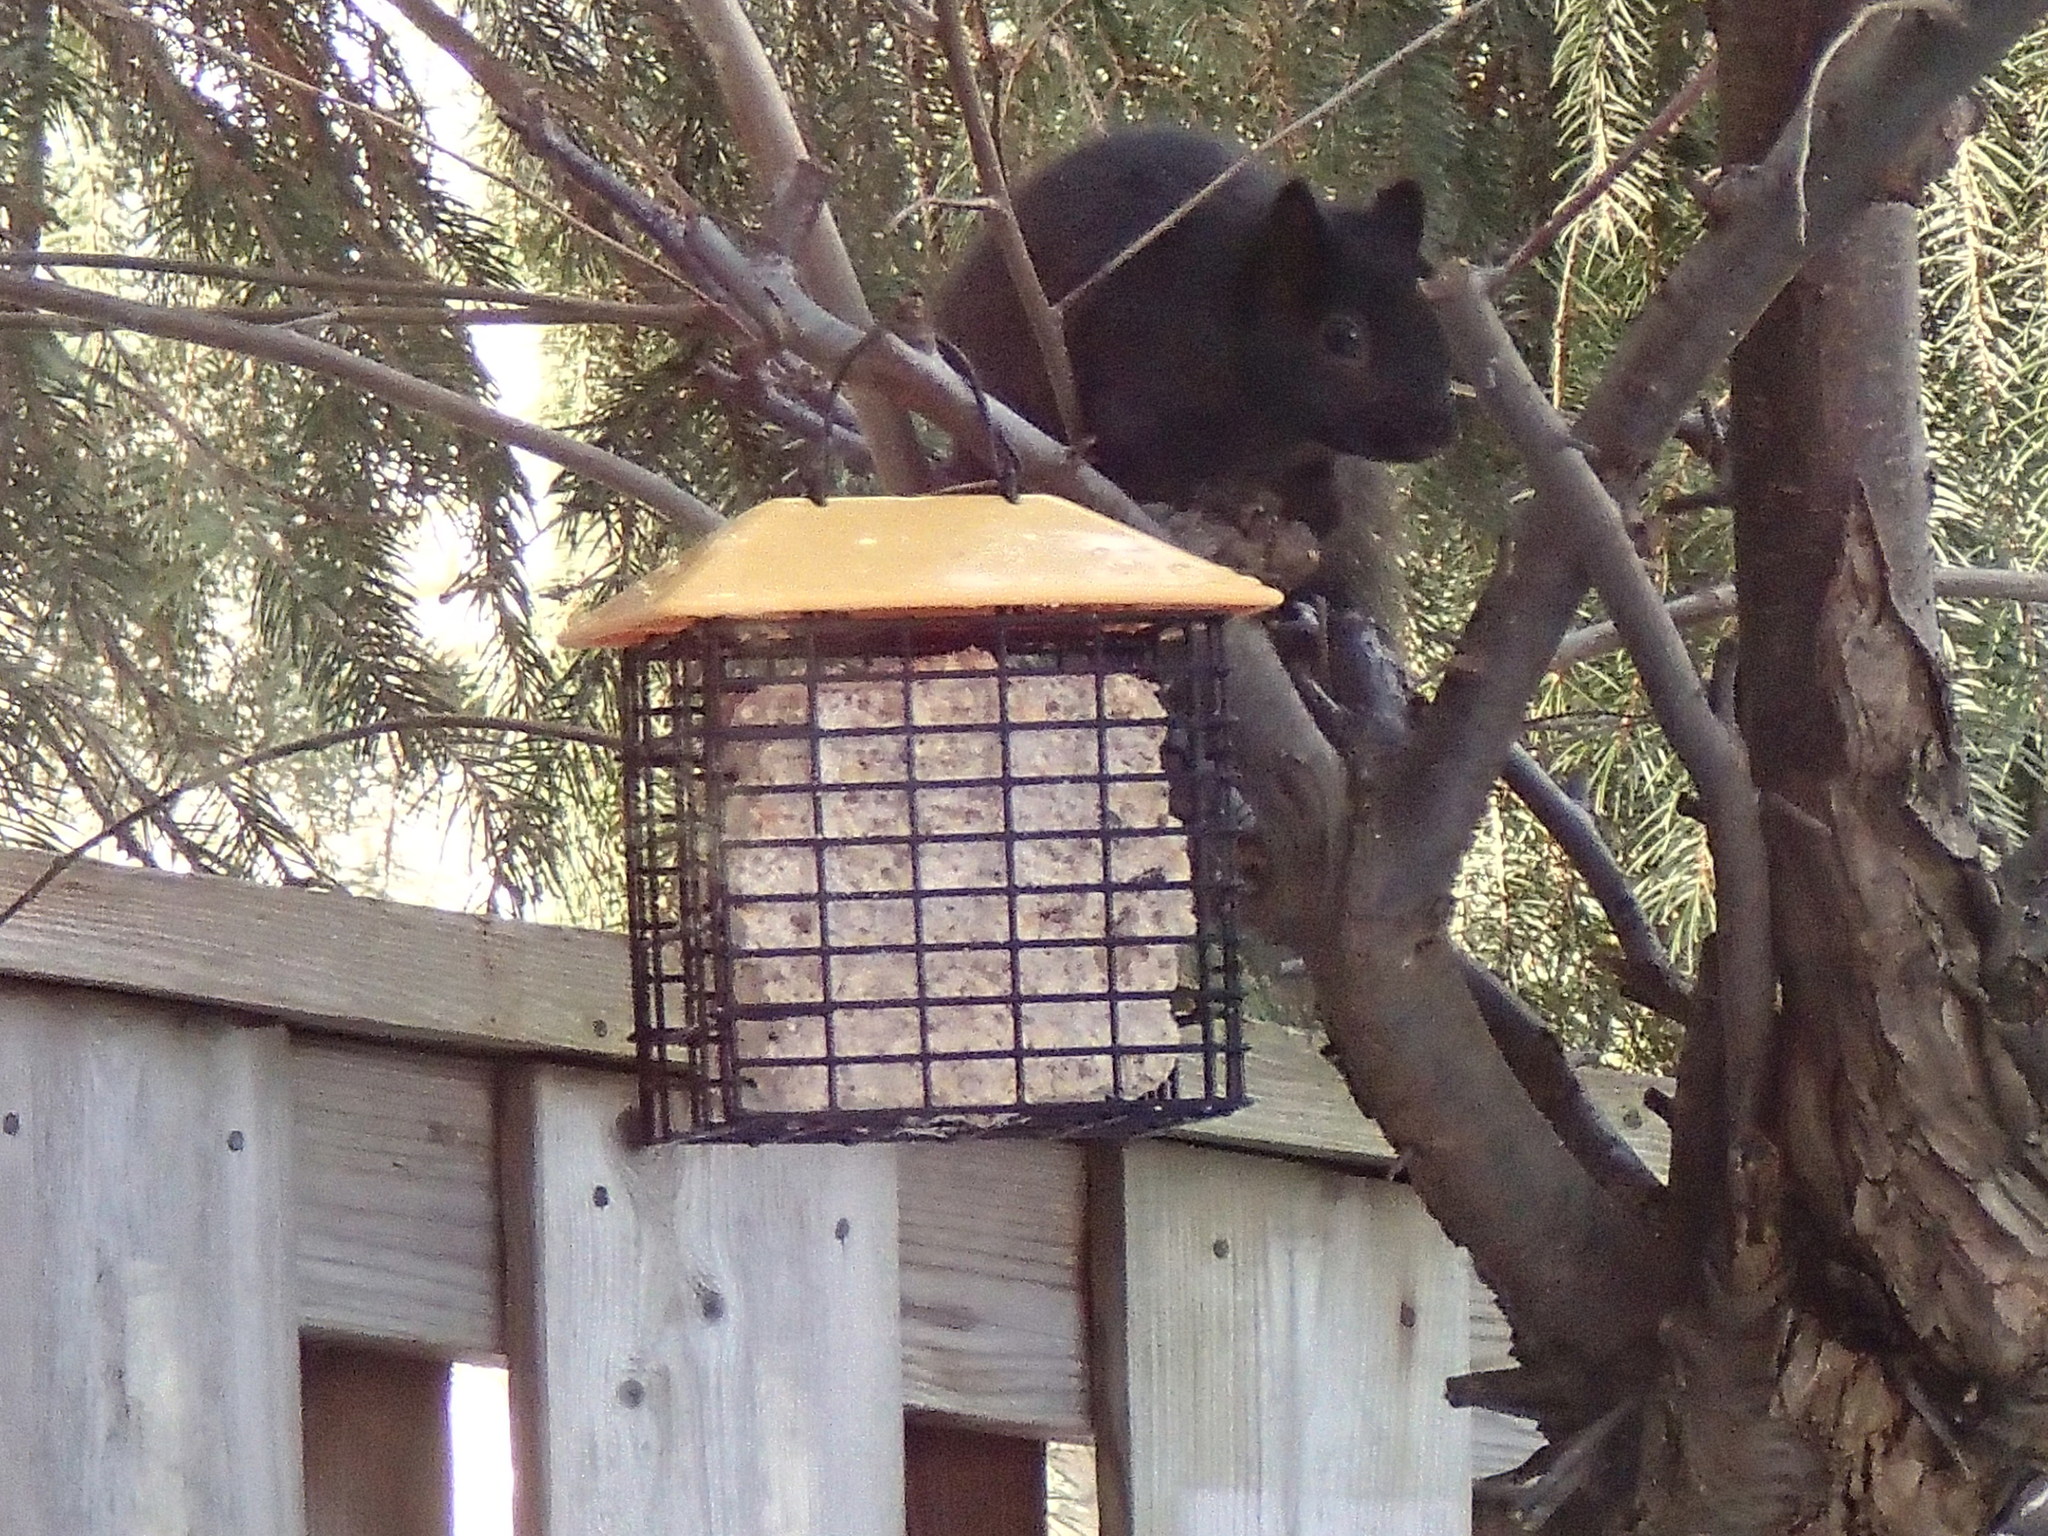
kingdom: Animalia
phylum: Chordata
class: Mammalia
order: Rodentia
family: Sciuridae
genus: Sciurus
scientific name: Sciurus carolinensis
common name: Eastern gray squirrel
